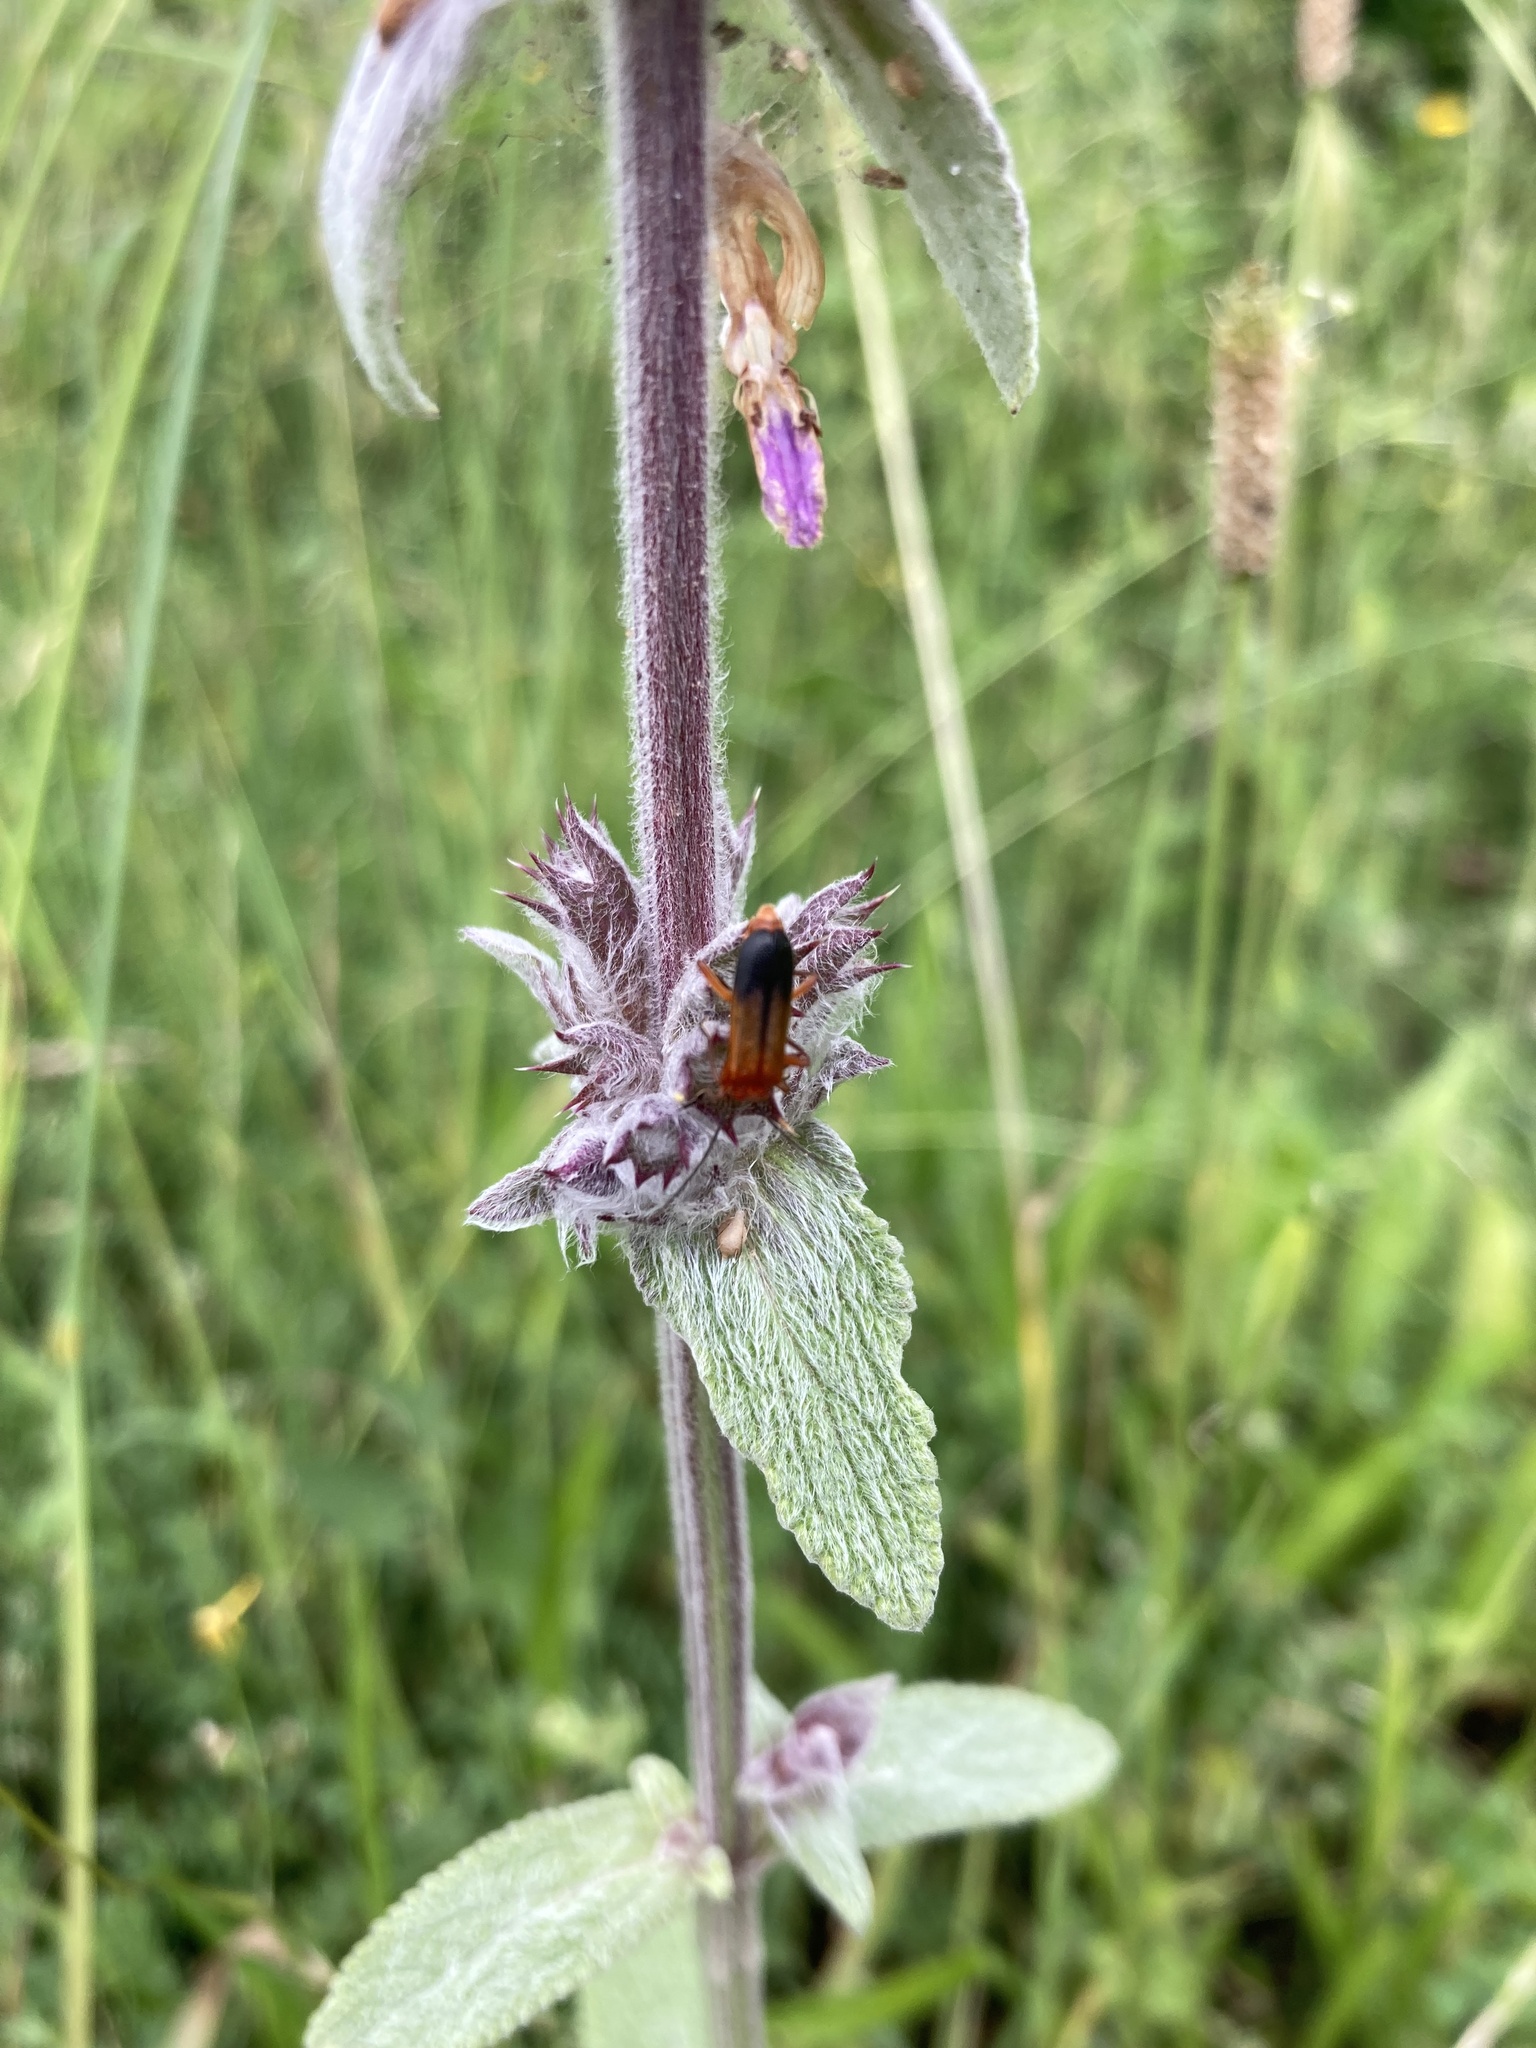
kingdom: Animalia
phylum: Arthropoda
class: Insecta
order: Coleoptera
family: Cantharidae
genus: Rhagonycha
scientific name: Rhagonycha fulva
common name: Common red soldier beetle
